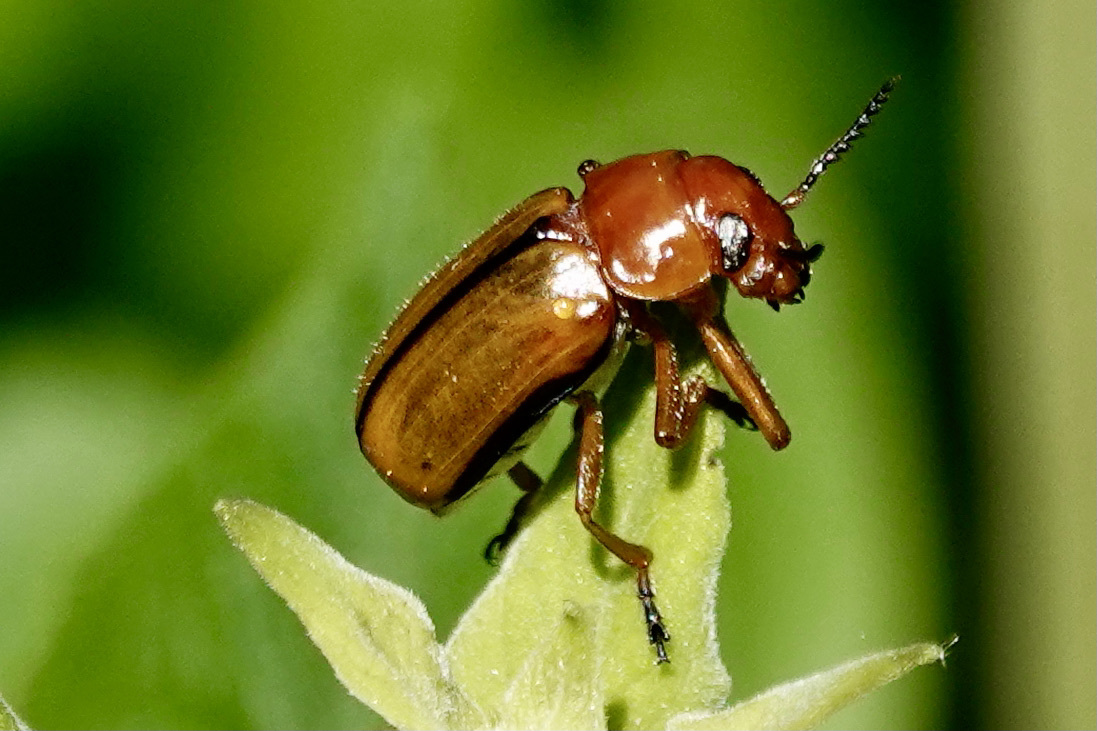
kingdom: Animalia
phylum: Arthropoda
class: Insecta
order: Coleoptera
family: Chrysomelidae
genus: Anomoea
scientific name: Anomoea laticlavia
